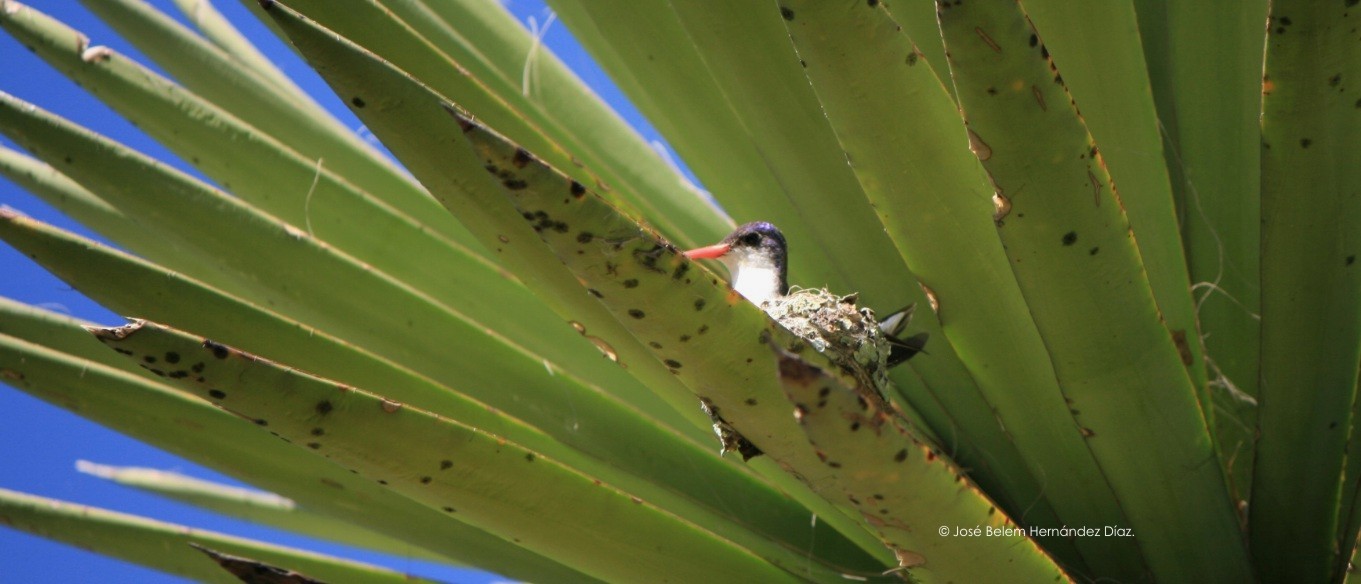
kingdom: Animalia
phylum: Chordata
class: Aves
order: Apodiformes
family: Trochilidae
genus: Leucolia
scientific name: Leucolia violiceps
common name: Violet-crowned hummingbird
